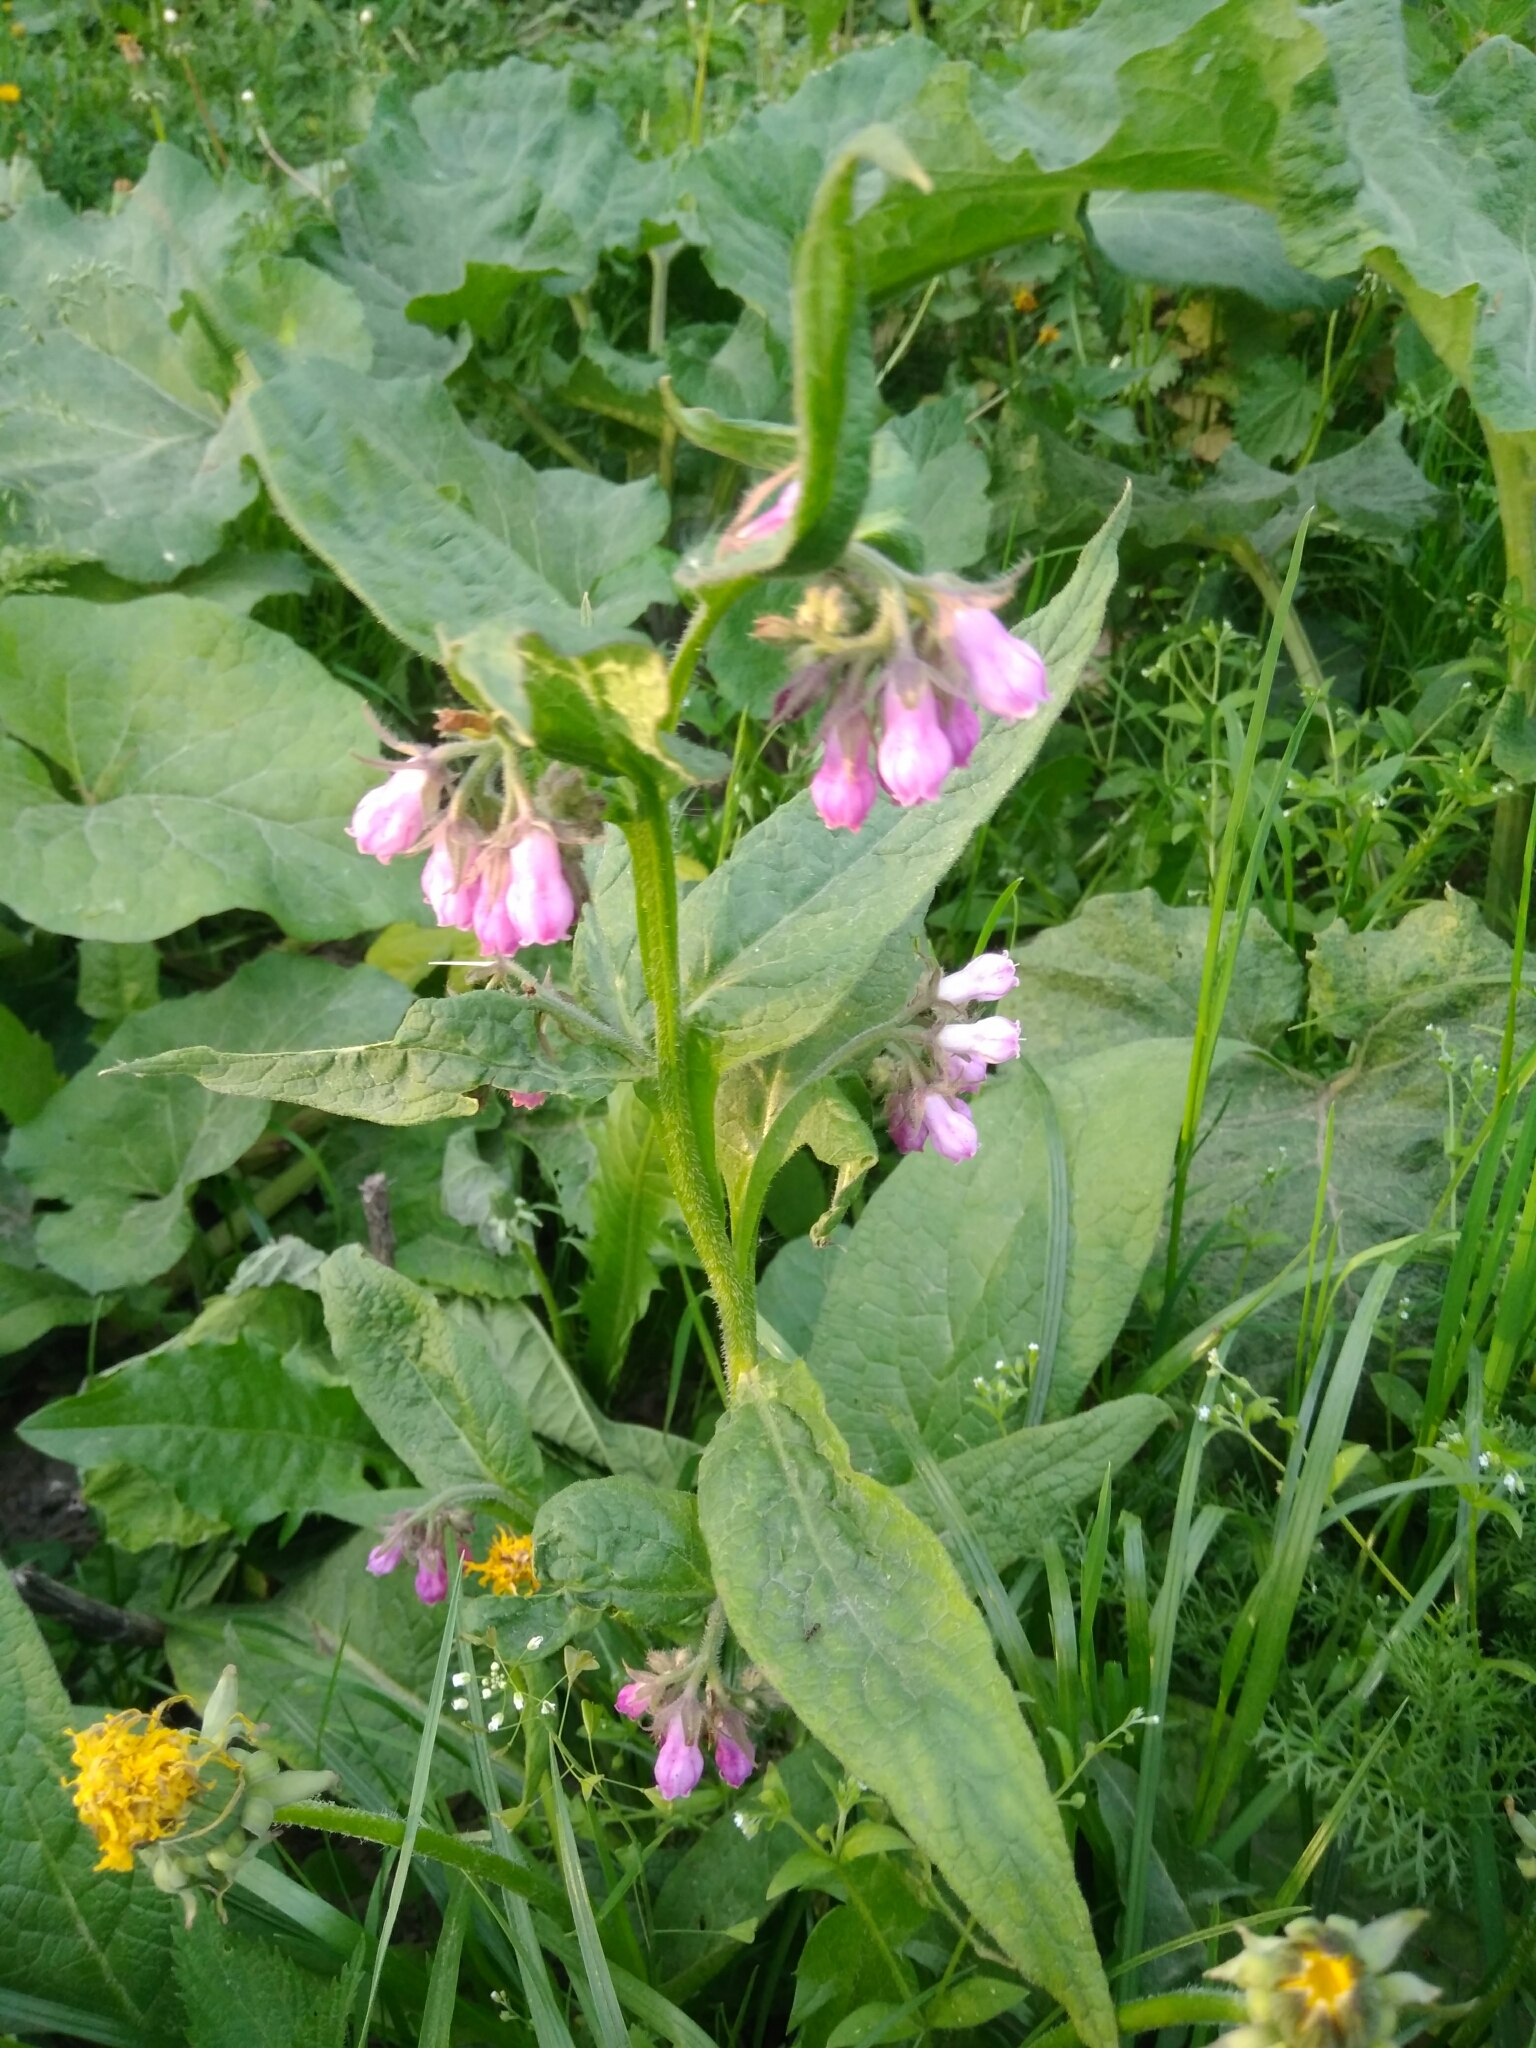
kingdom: Plantae
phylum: Tracheophyta
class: Magnoliopsida
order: Boraginales
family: Boraginaceae
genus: Symphytum
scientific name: Symphytum uplandicum
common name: Russian comfrey
